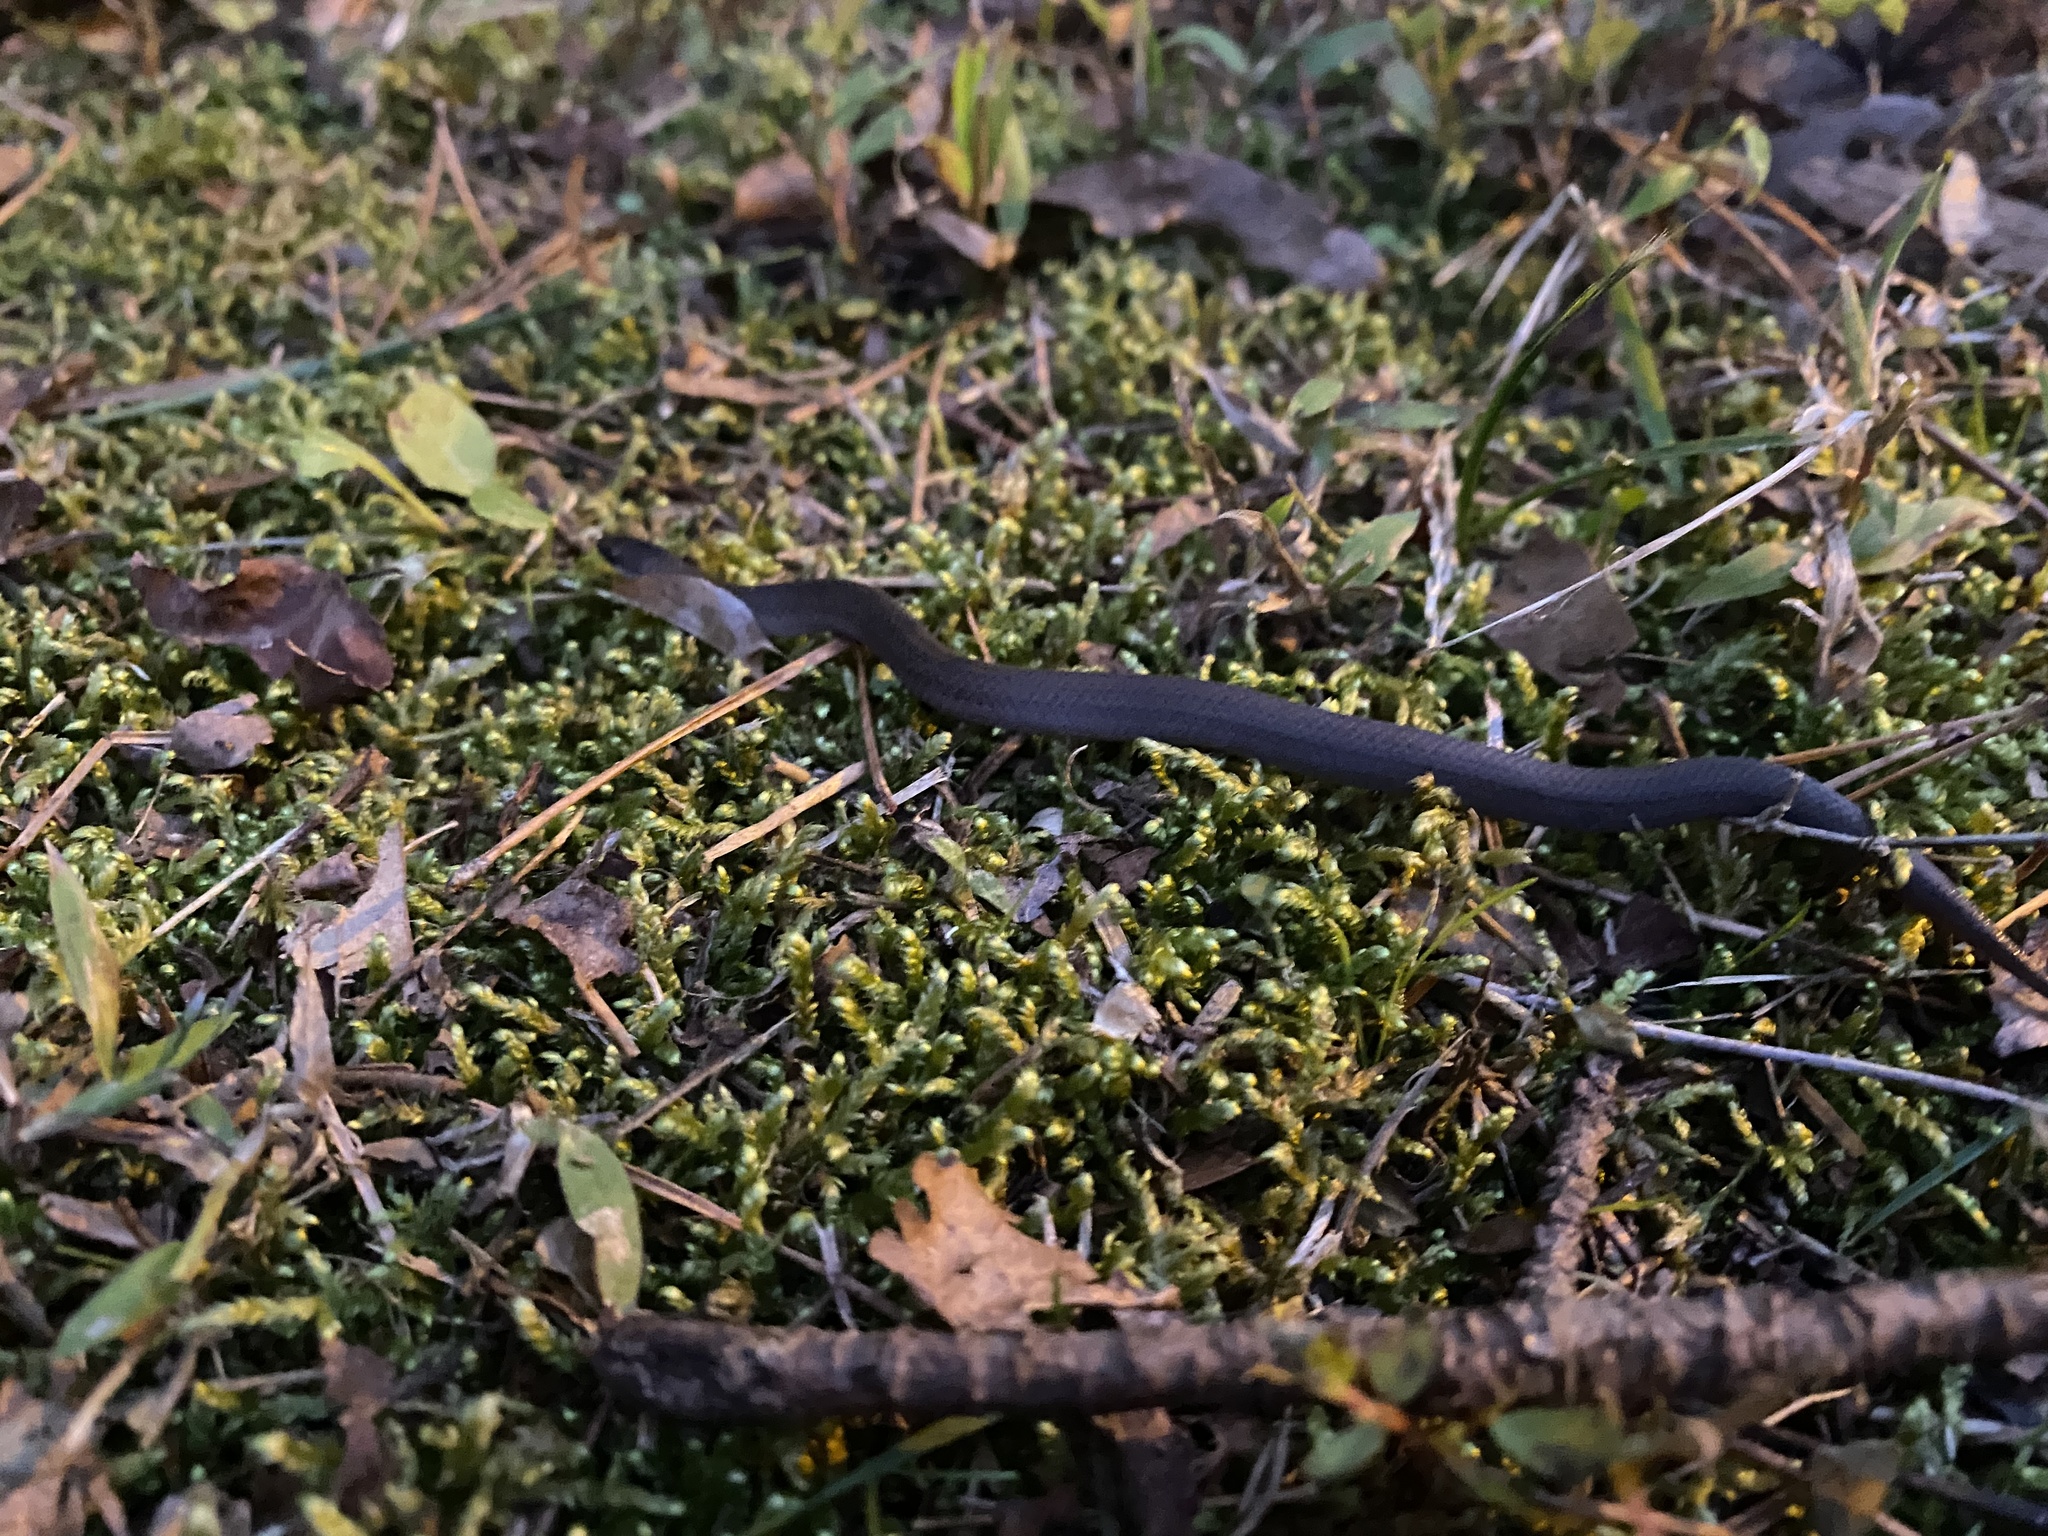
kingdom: Animalia
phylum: Chordata
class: Squamata
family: Colubridae
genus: Haldea
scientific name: Haldea striatula
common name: Rough earth snake
